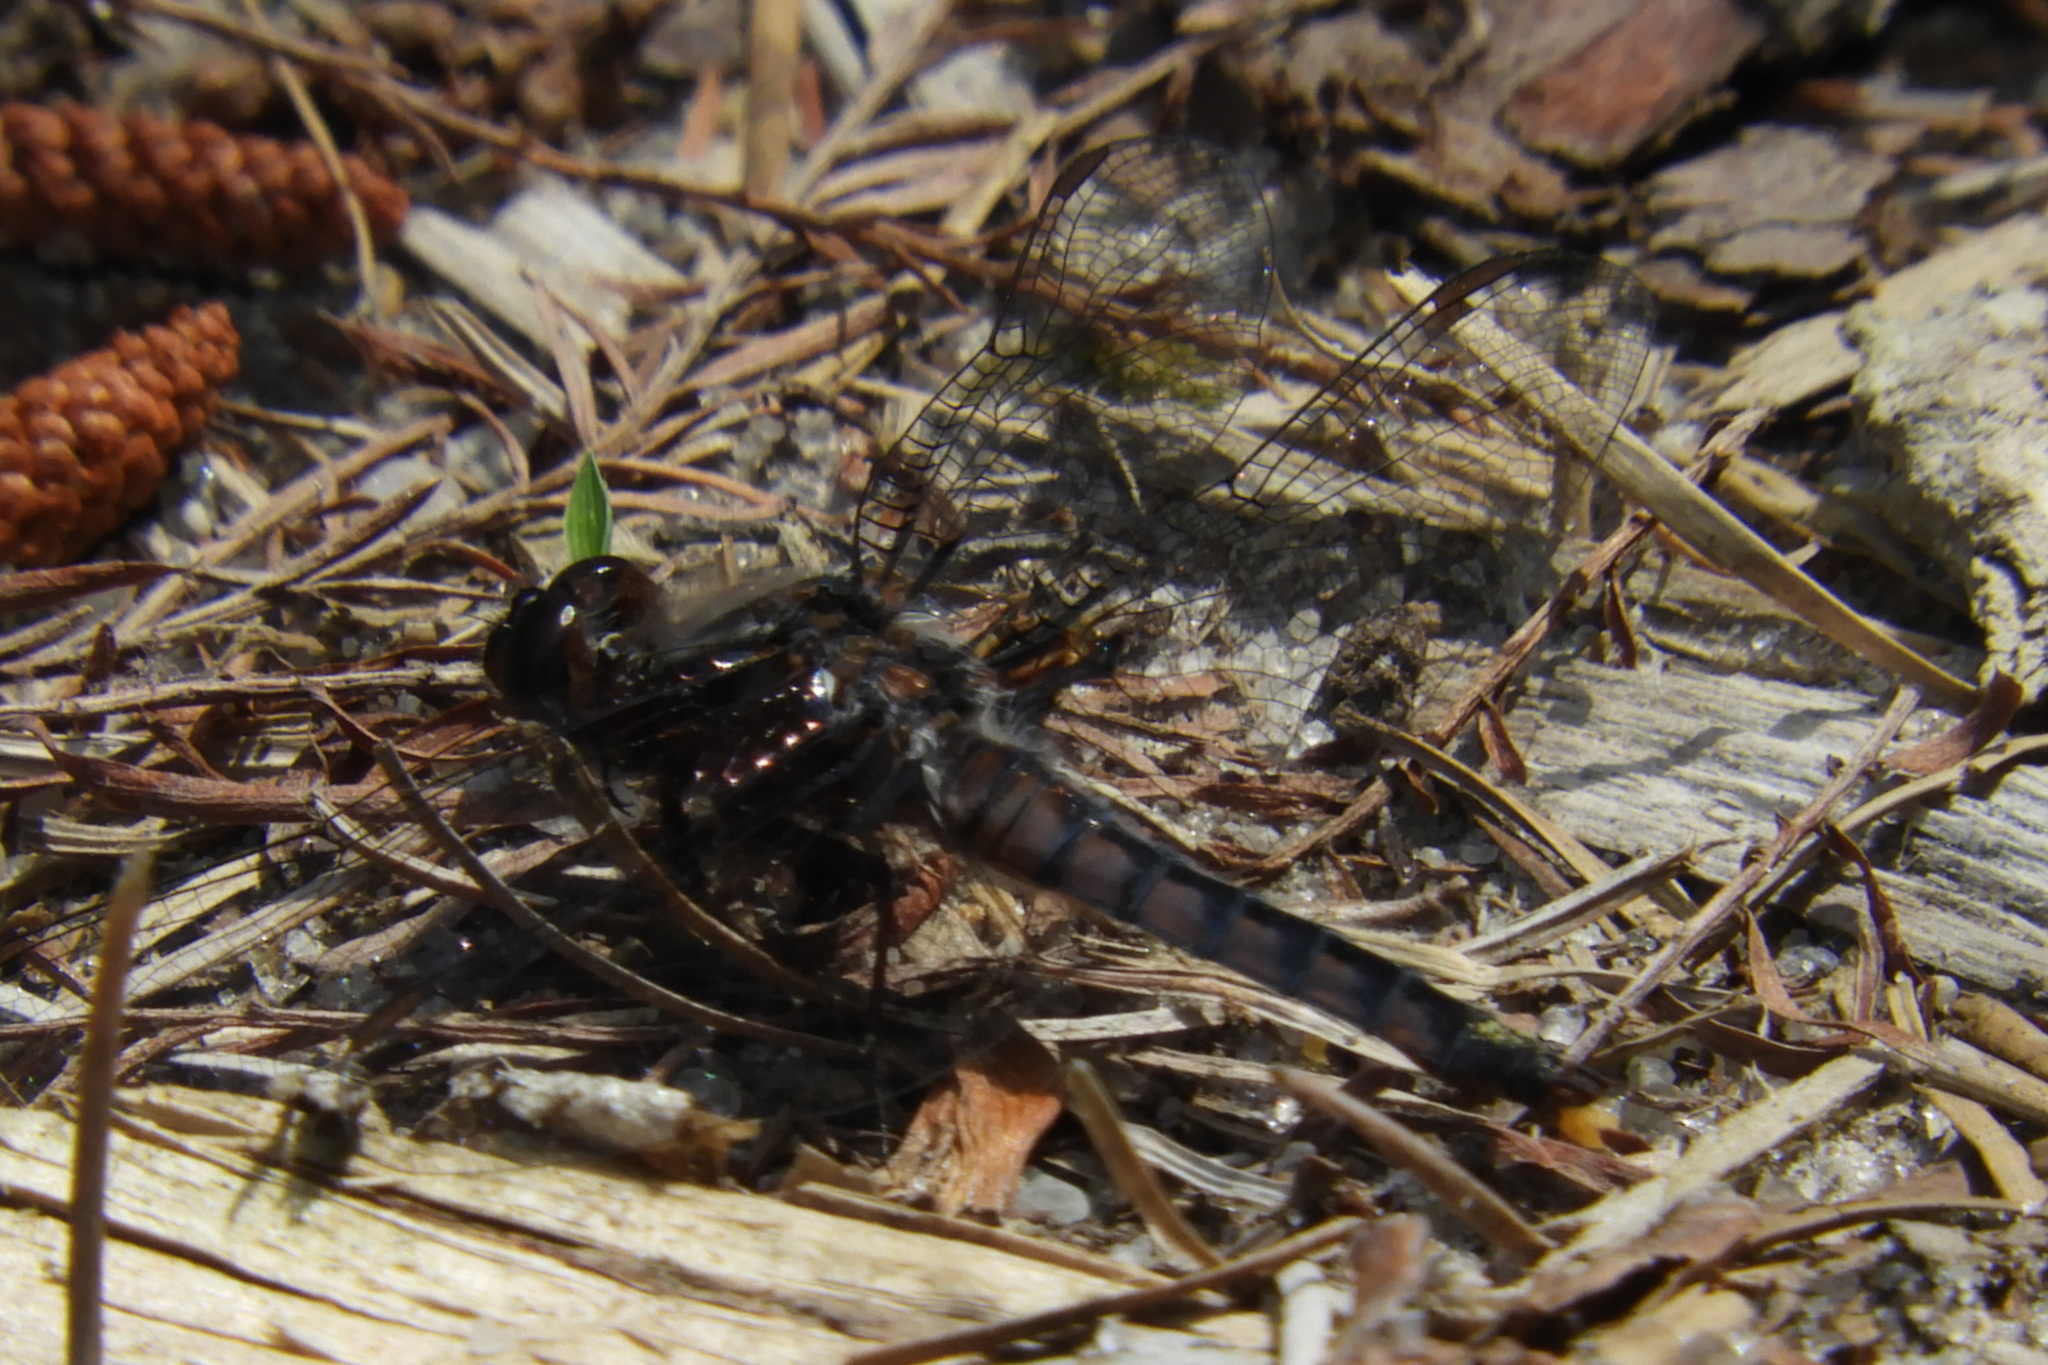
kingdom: Animalia
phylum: Arthropoda
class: Insecta
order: Odonata
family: Libellulidae
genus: Ladona
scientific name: Ladona deplanata
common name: Blue corporal
